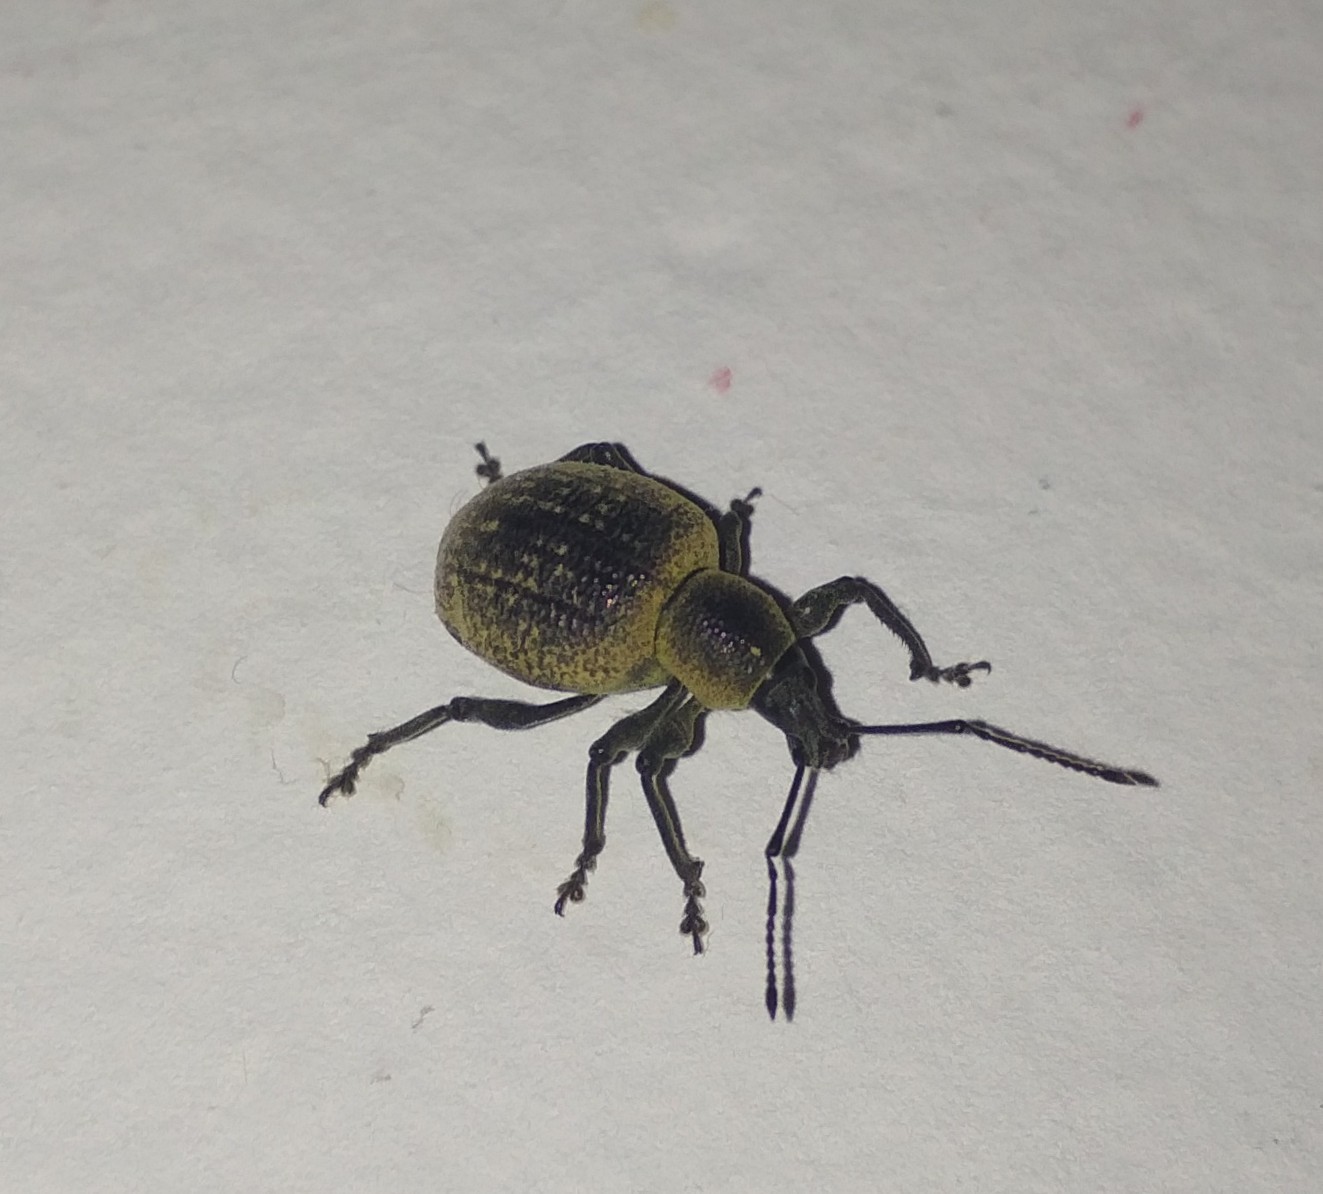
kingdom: Animalia
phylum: Arthropoda
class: Insecta
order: Coleoptera
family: Curculionidae
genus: Otiorhynchus
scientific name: Otiorhynchus armadillo
